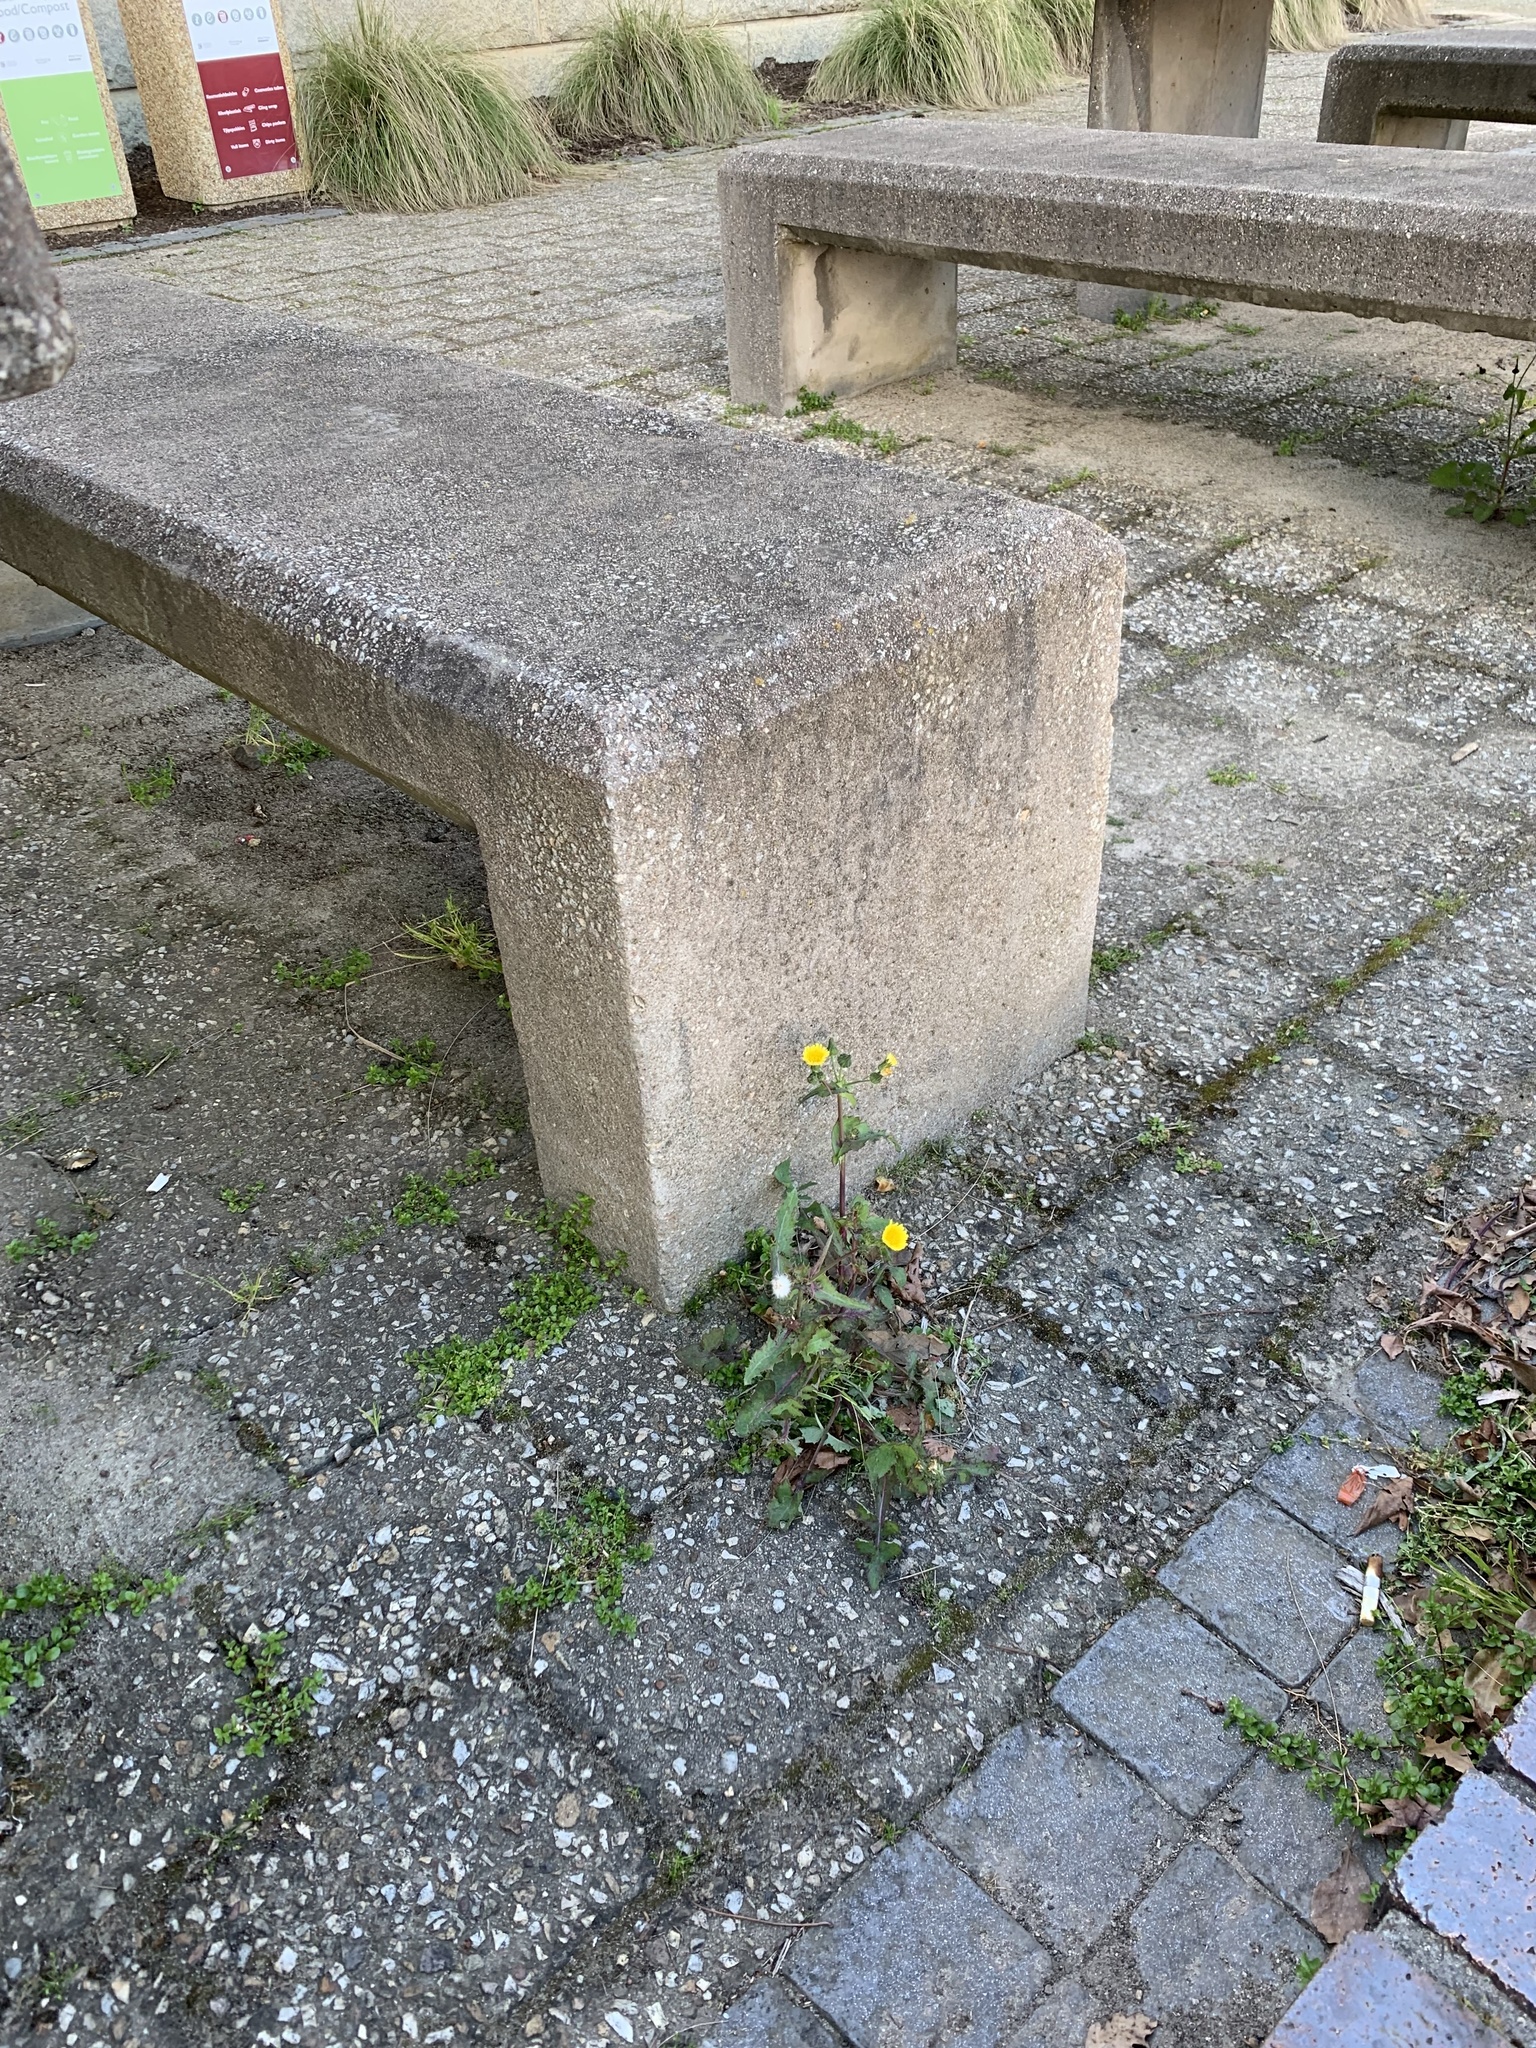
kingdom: Plantae
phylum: Tracheophyta
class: Magnoliopsida
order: Asterales
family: Asteraceae
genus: Sonchus
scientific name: Sonchus oleraceus
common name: Common sowthistle
